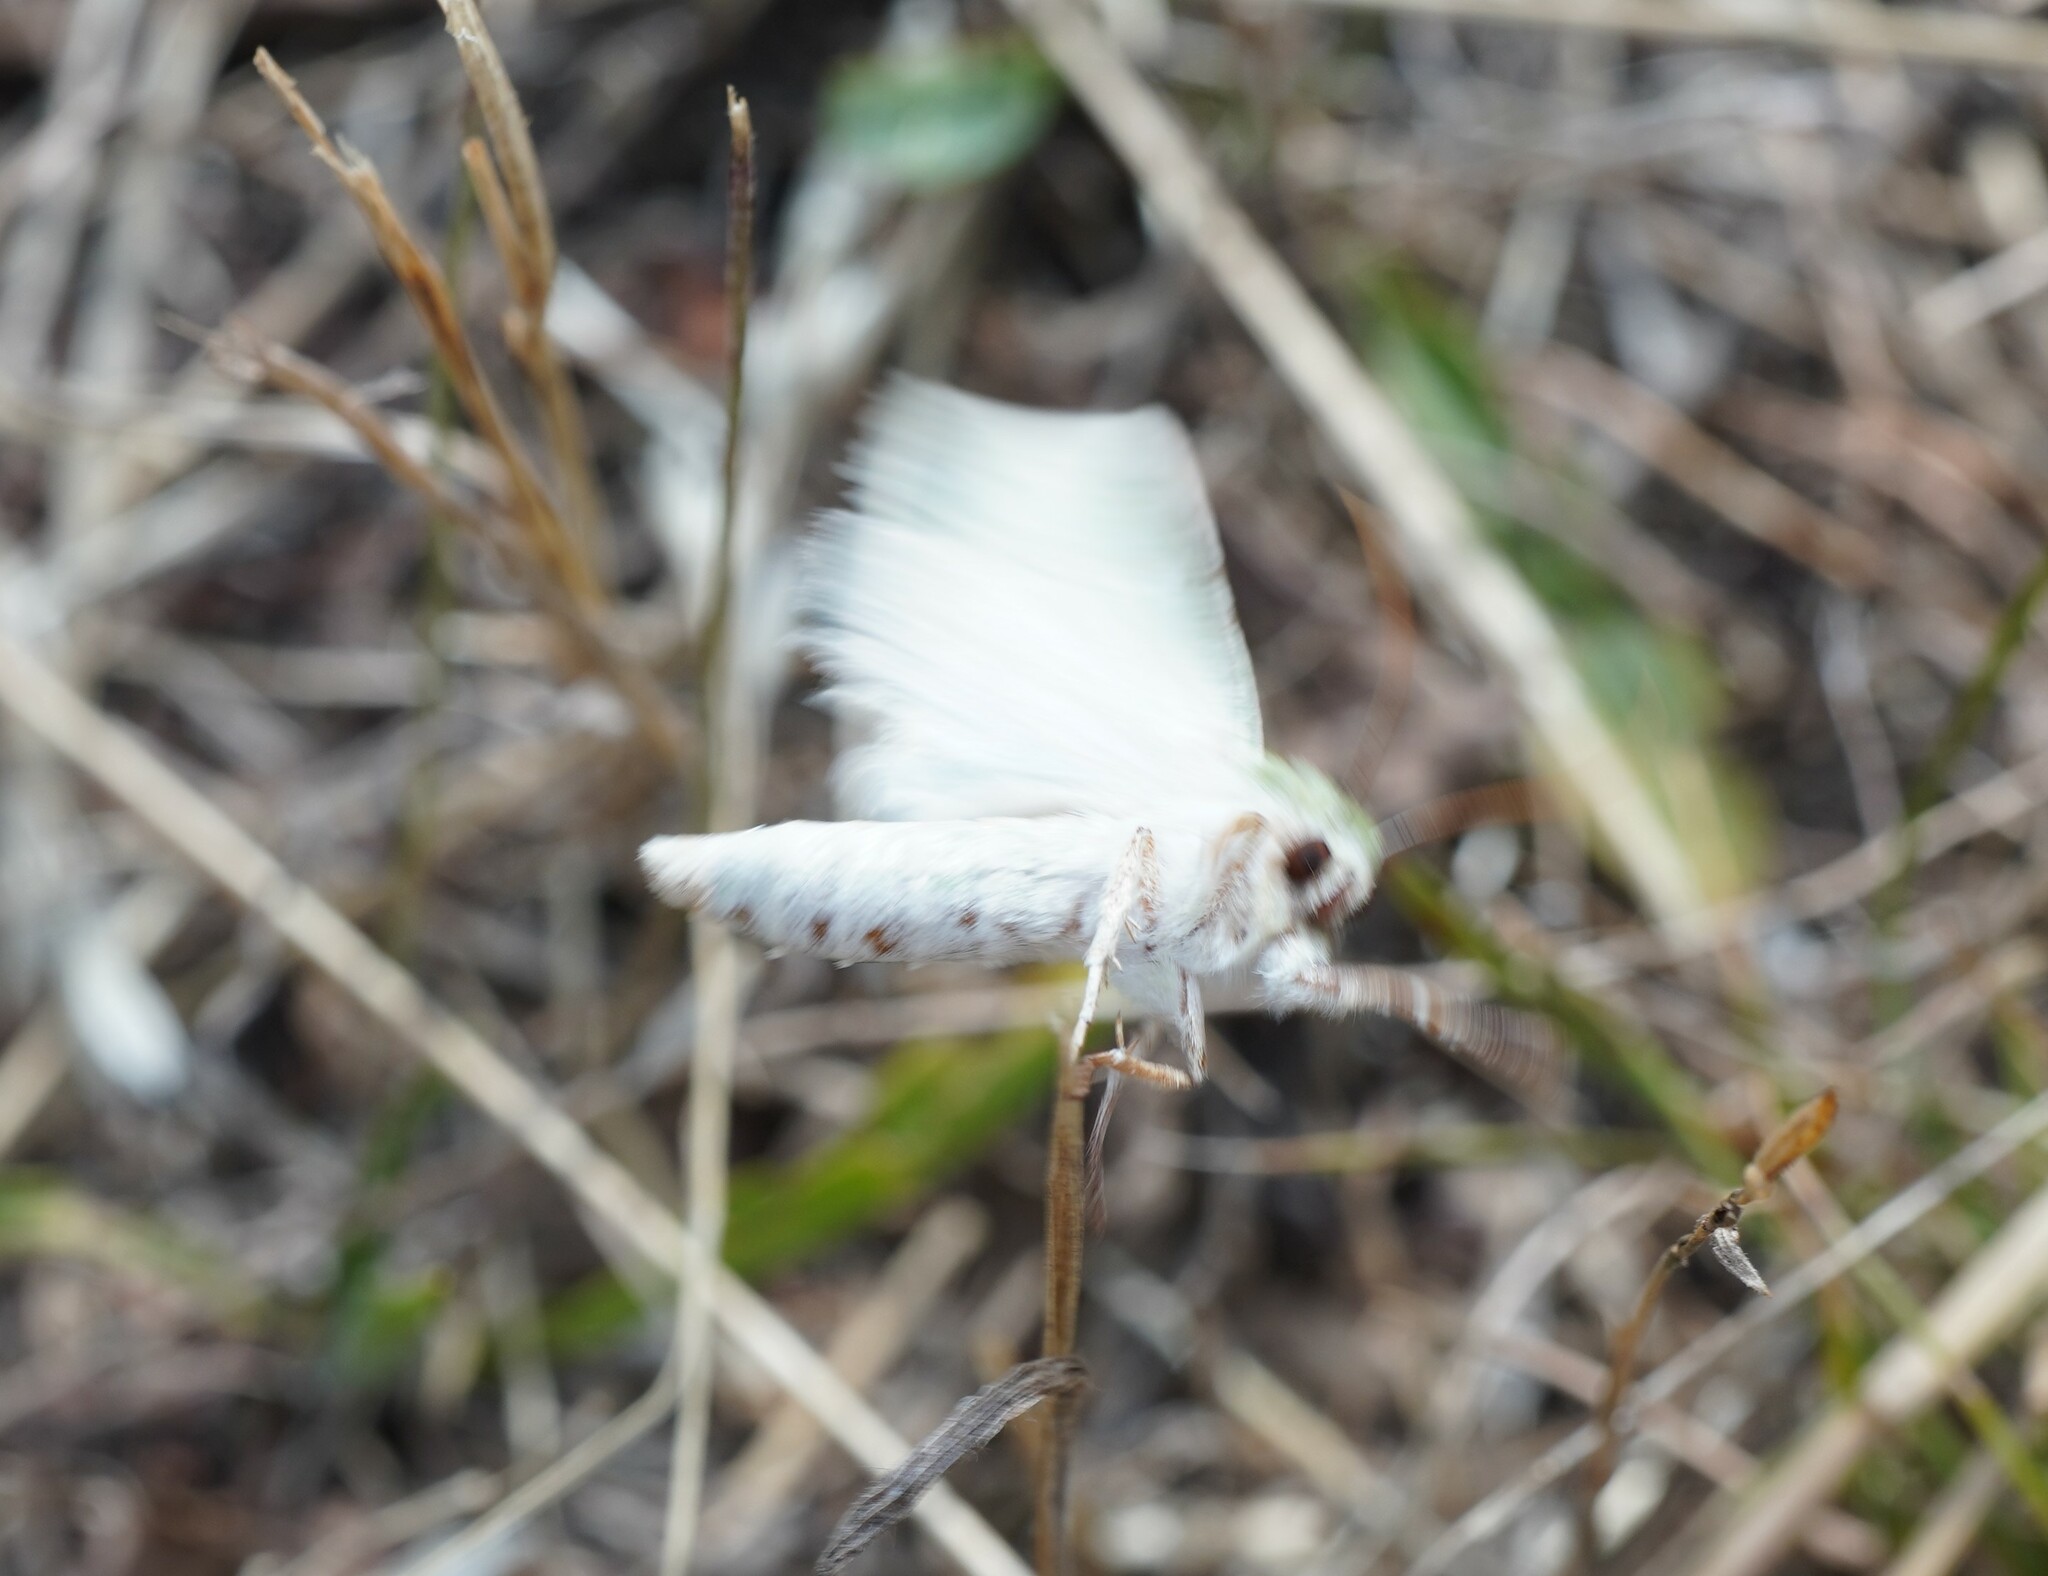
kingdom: Animalia
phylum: Arthropoda
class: Insecta
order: Lepidoptera
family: Noctuidae
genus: Calamia
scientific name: Calamia tridens
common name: Burren green
